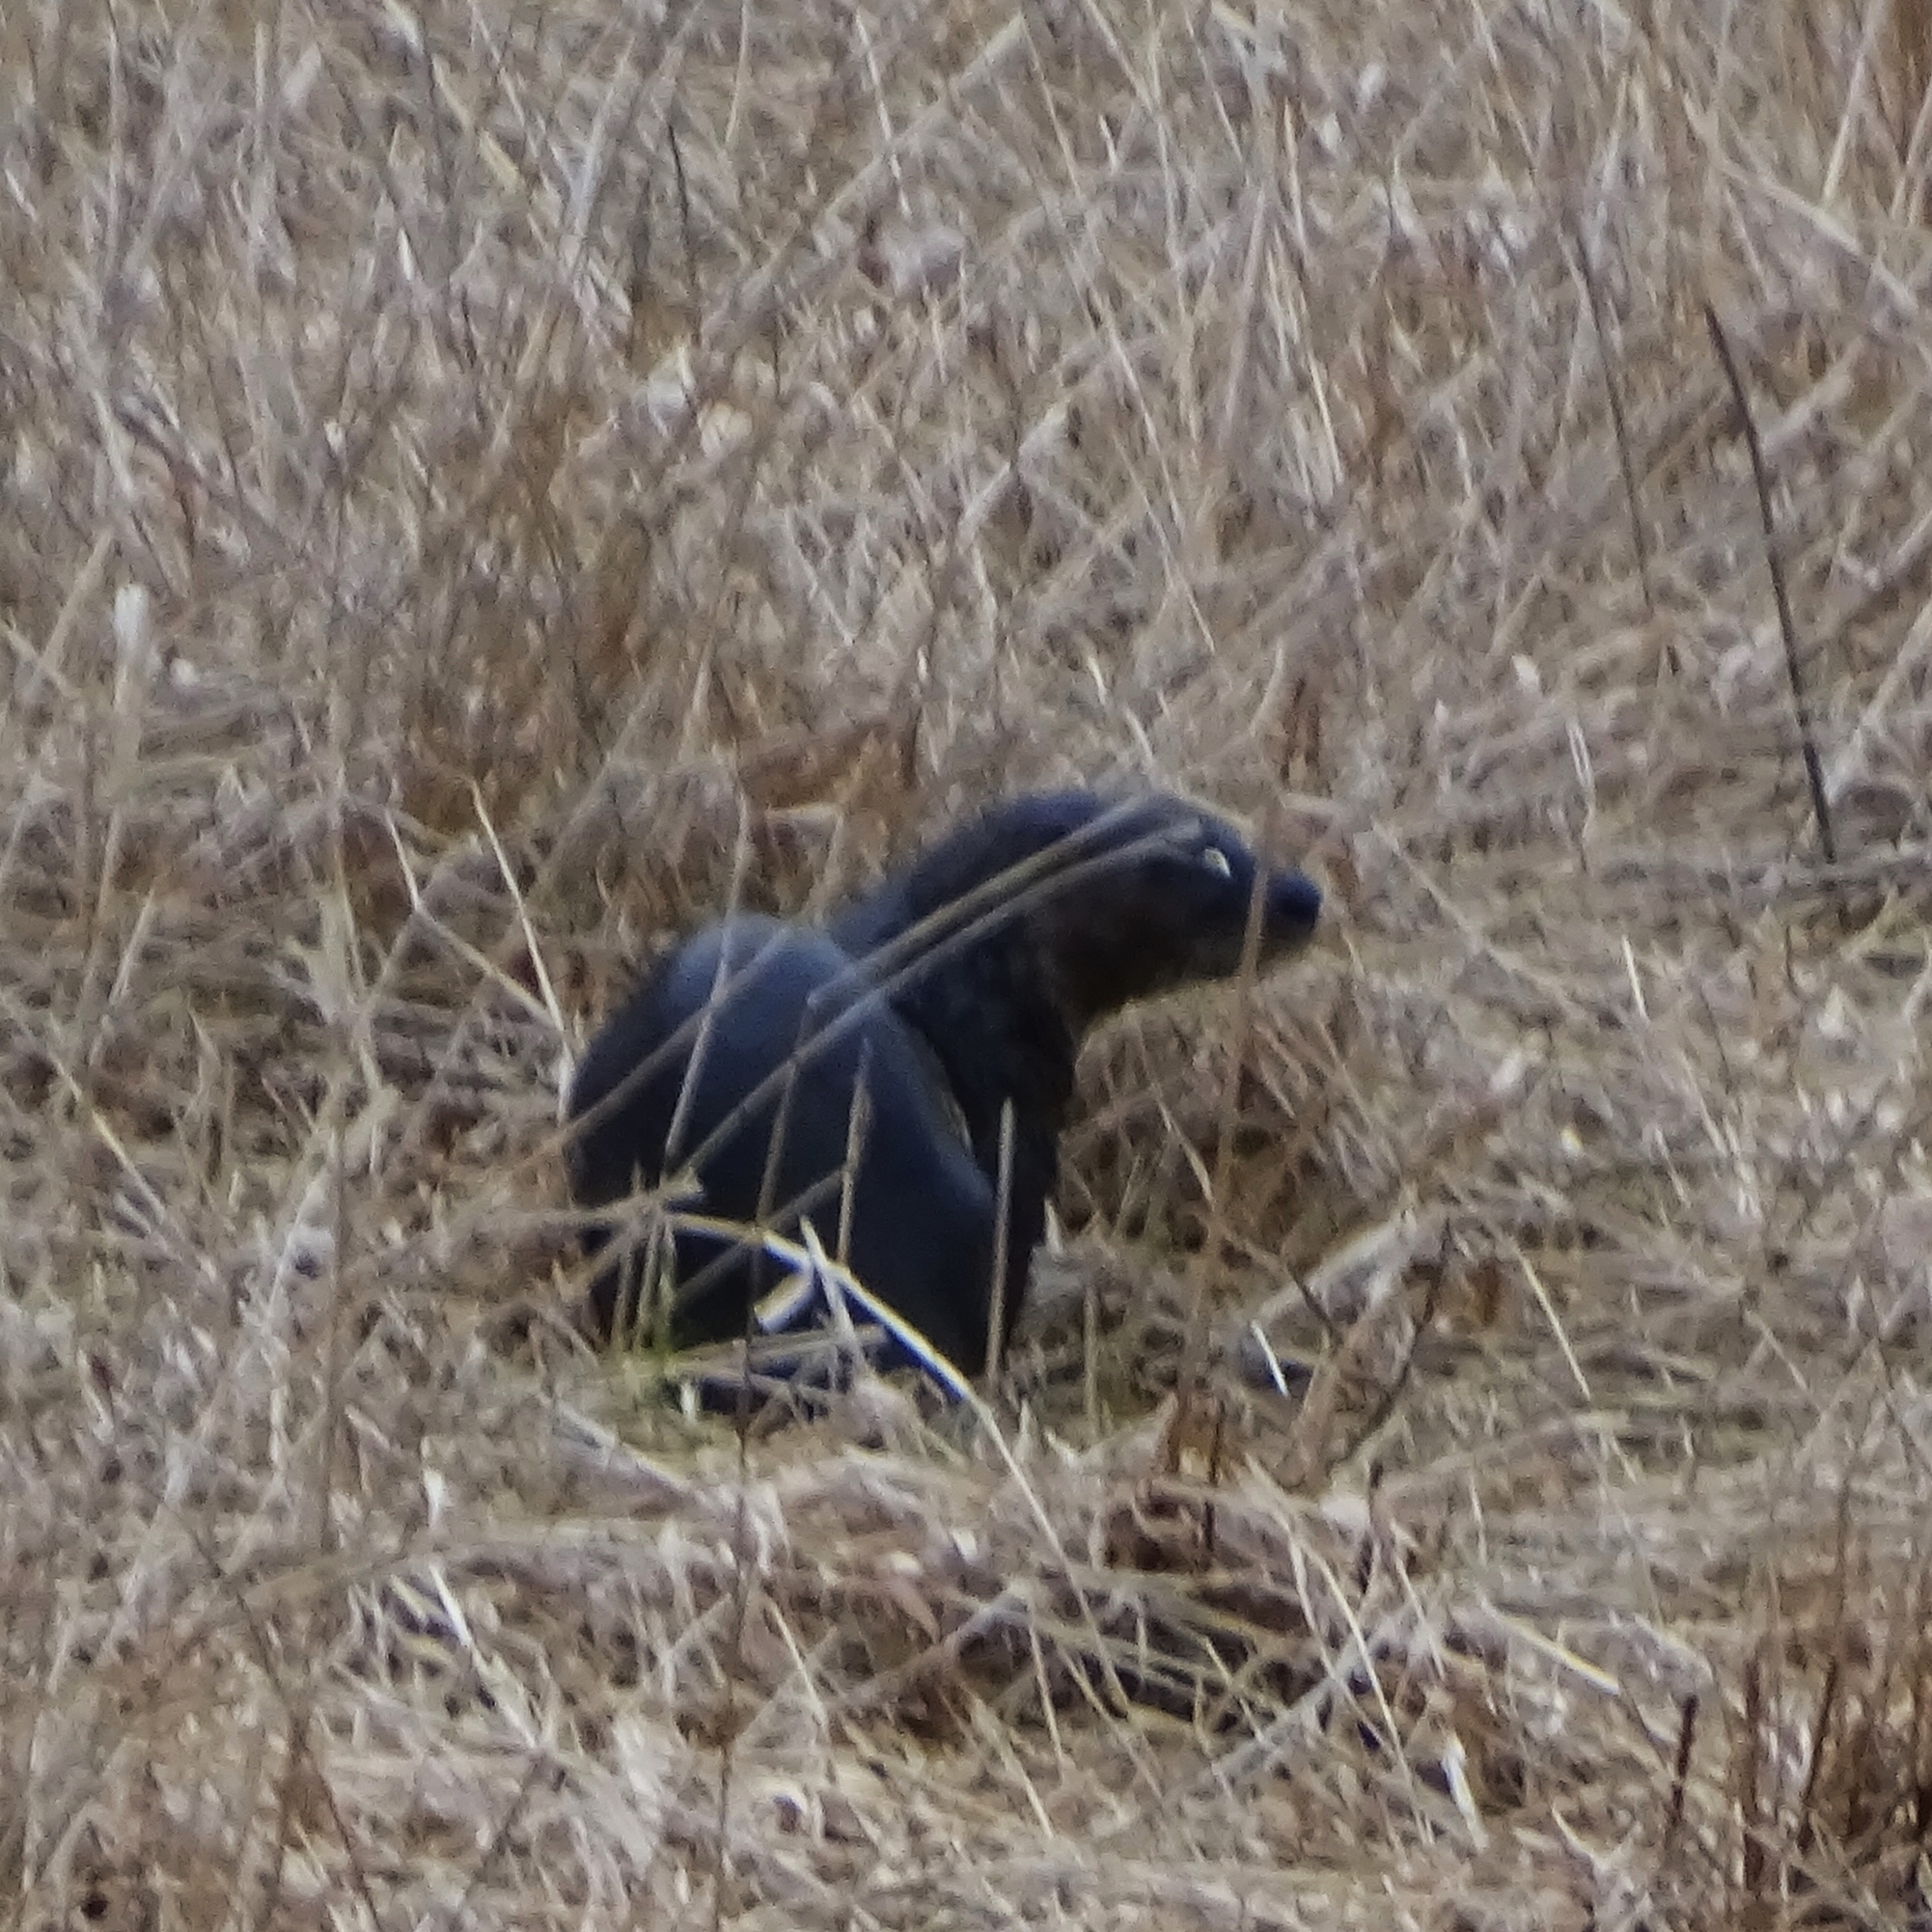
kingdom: Animalia
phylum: Chordata
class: Mammalia
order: Carnivora
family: Mustelidae
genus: Lontra
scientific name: Lontra canadensis
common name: North american river otter
